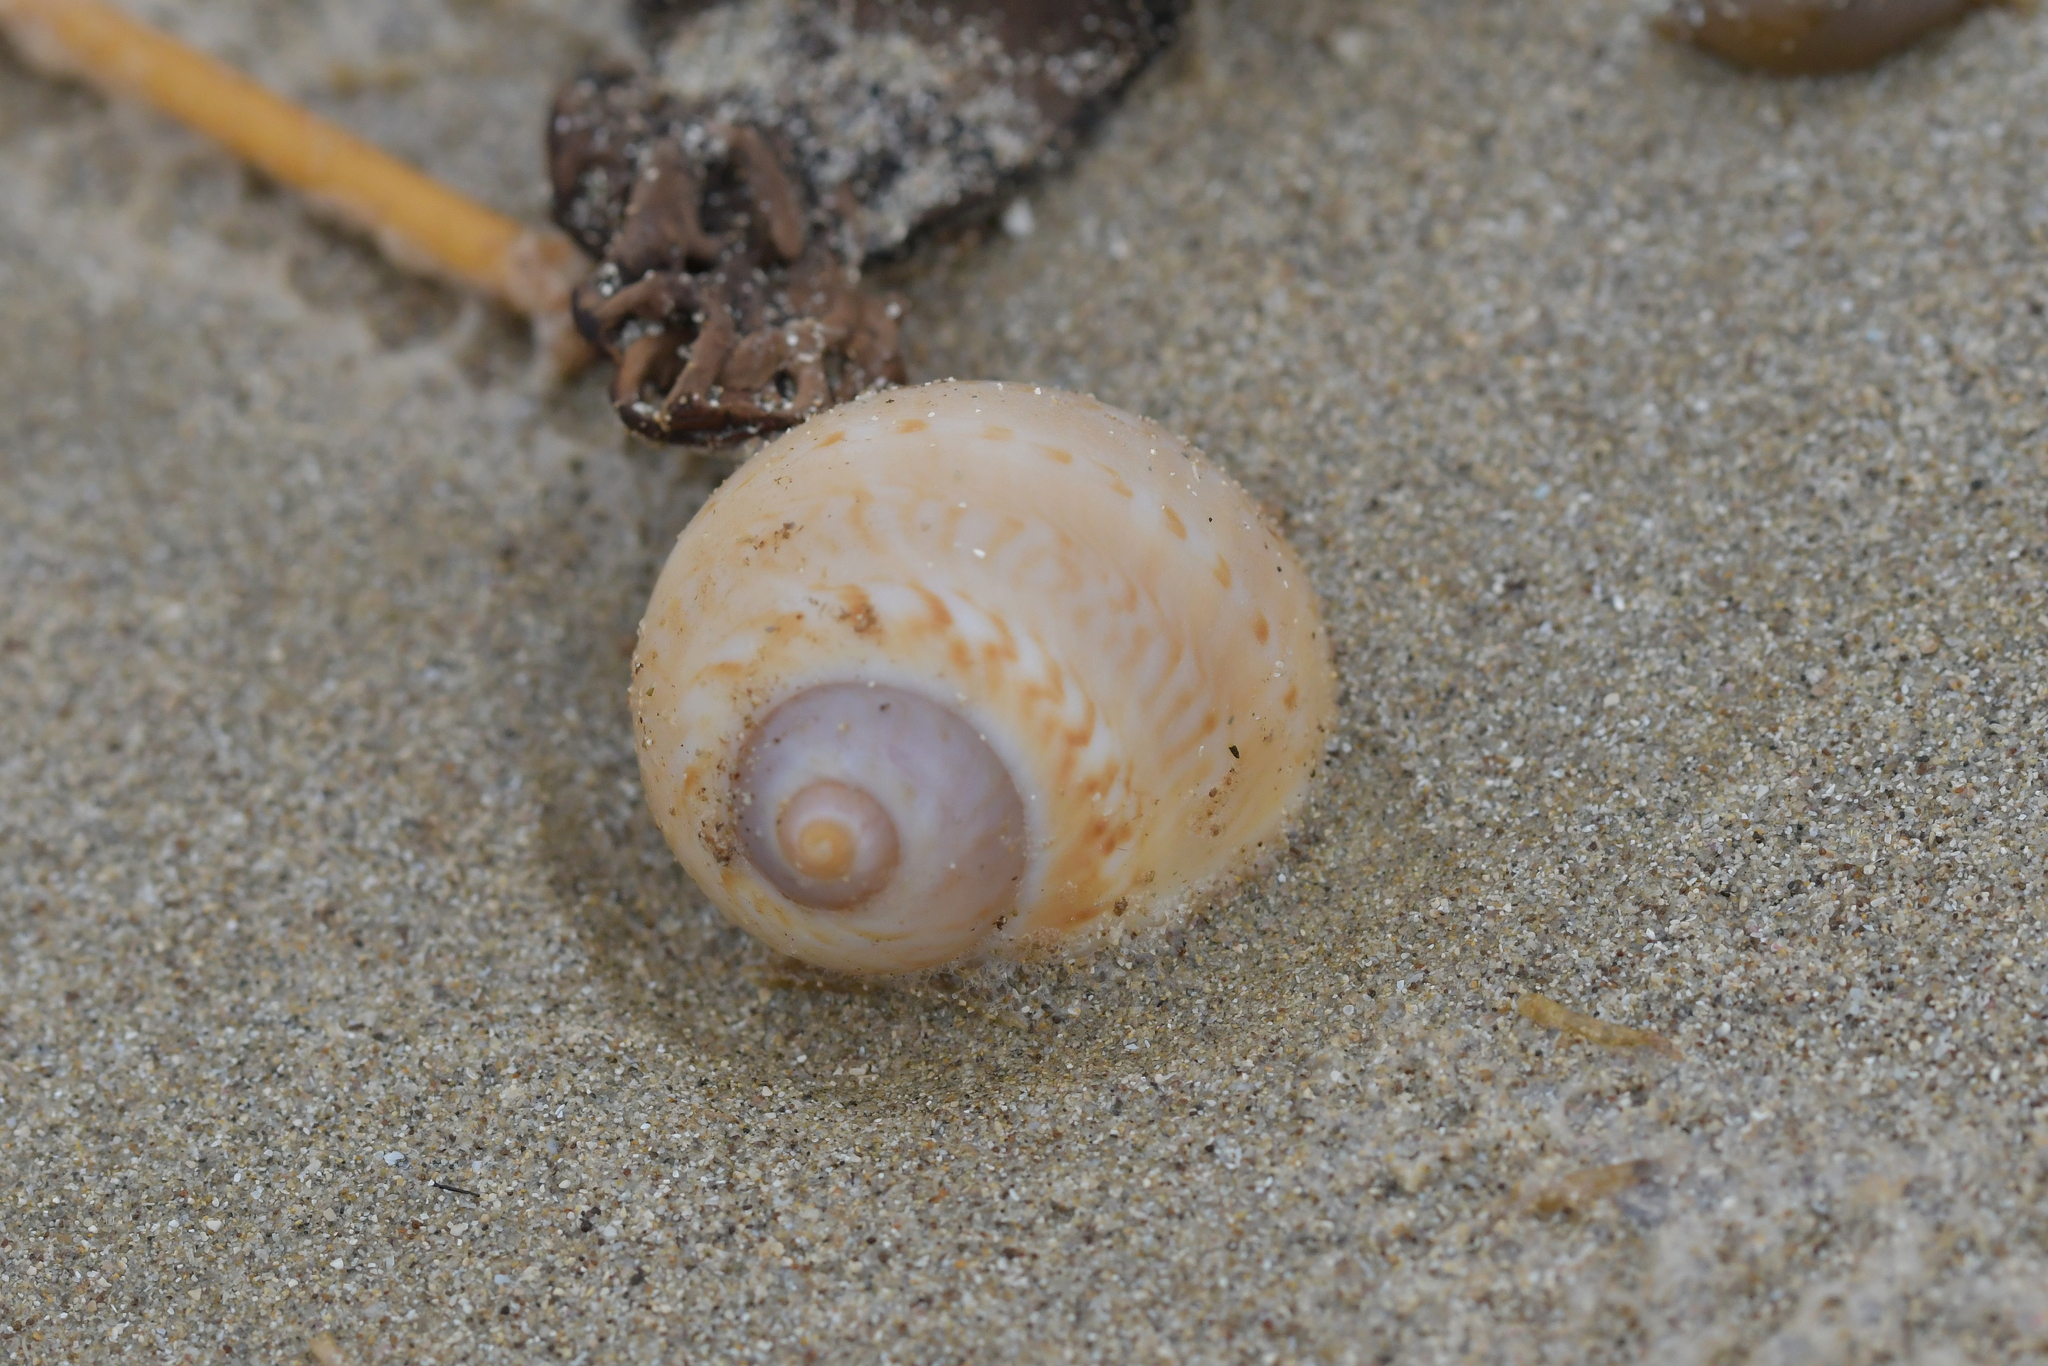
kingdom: Animalia
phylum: Mollusca
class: Gastropoda
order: Littorinimorpha
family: Naticidae
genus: Tanea
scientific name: Tanea zelandica
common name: New zealand moonsnail
